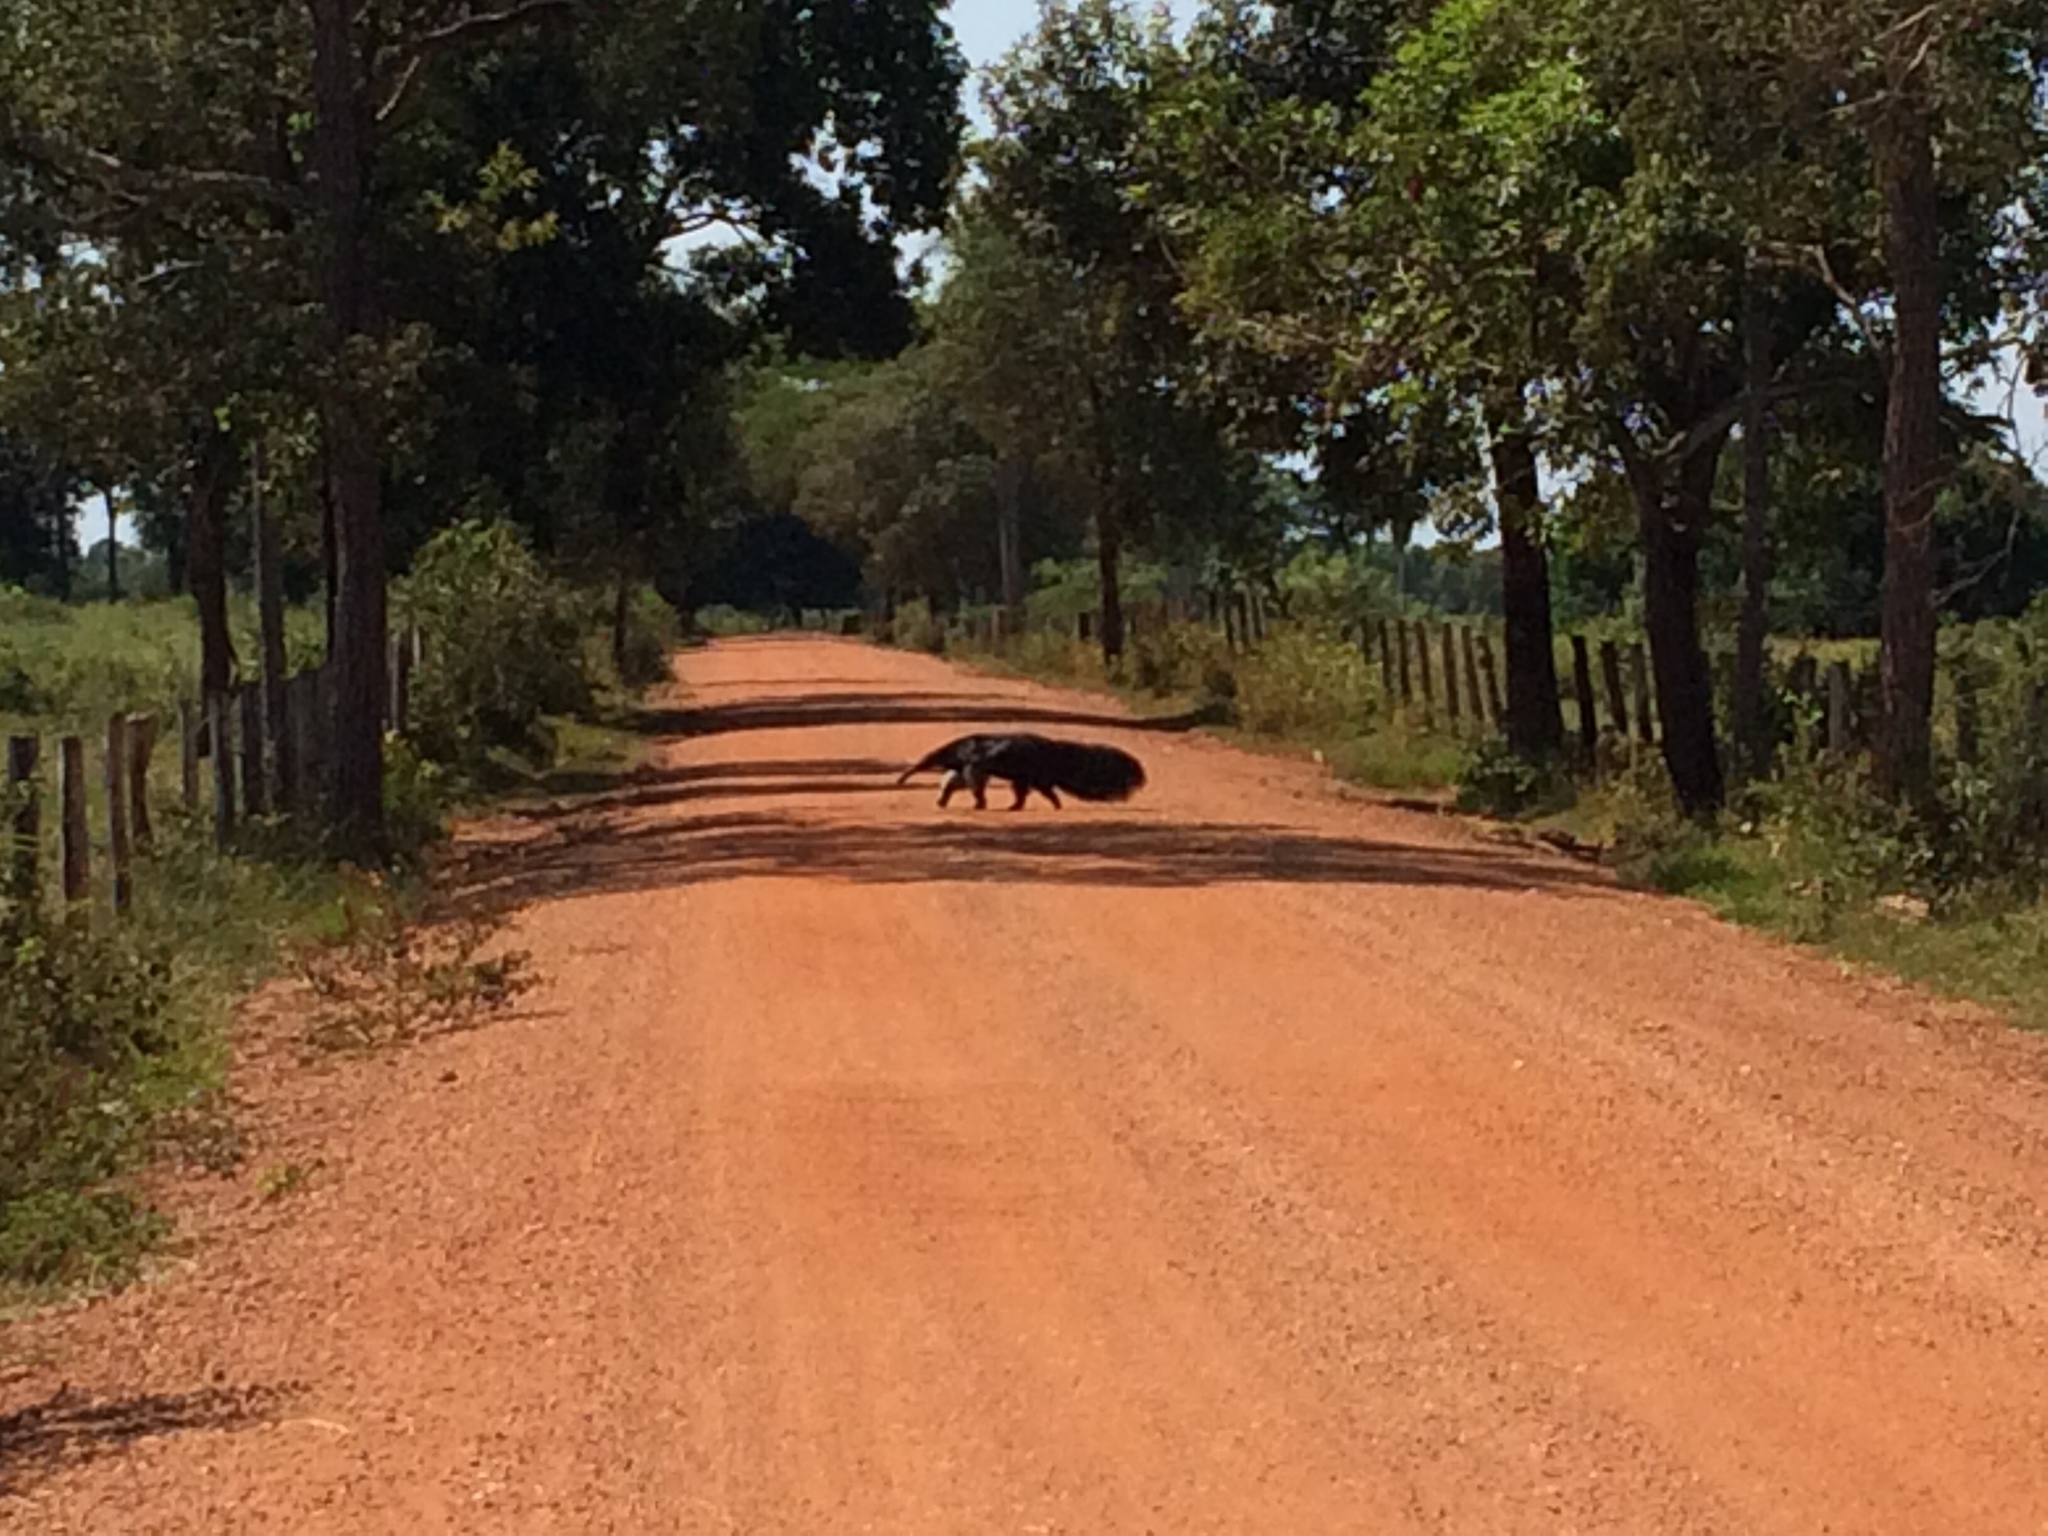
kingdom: Animalia
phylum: Chordata
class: Mammalia
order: Pilosa
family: Myrmecophagidae
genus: Myrmecophaga
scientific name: Myrmecophaga tridactyla
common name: Giant anteater
